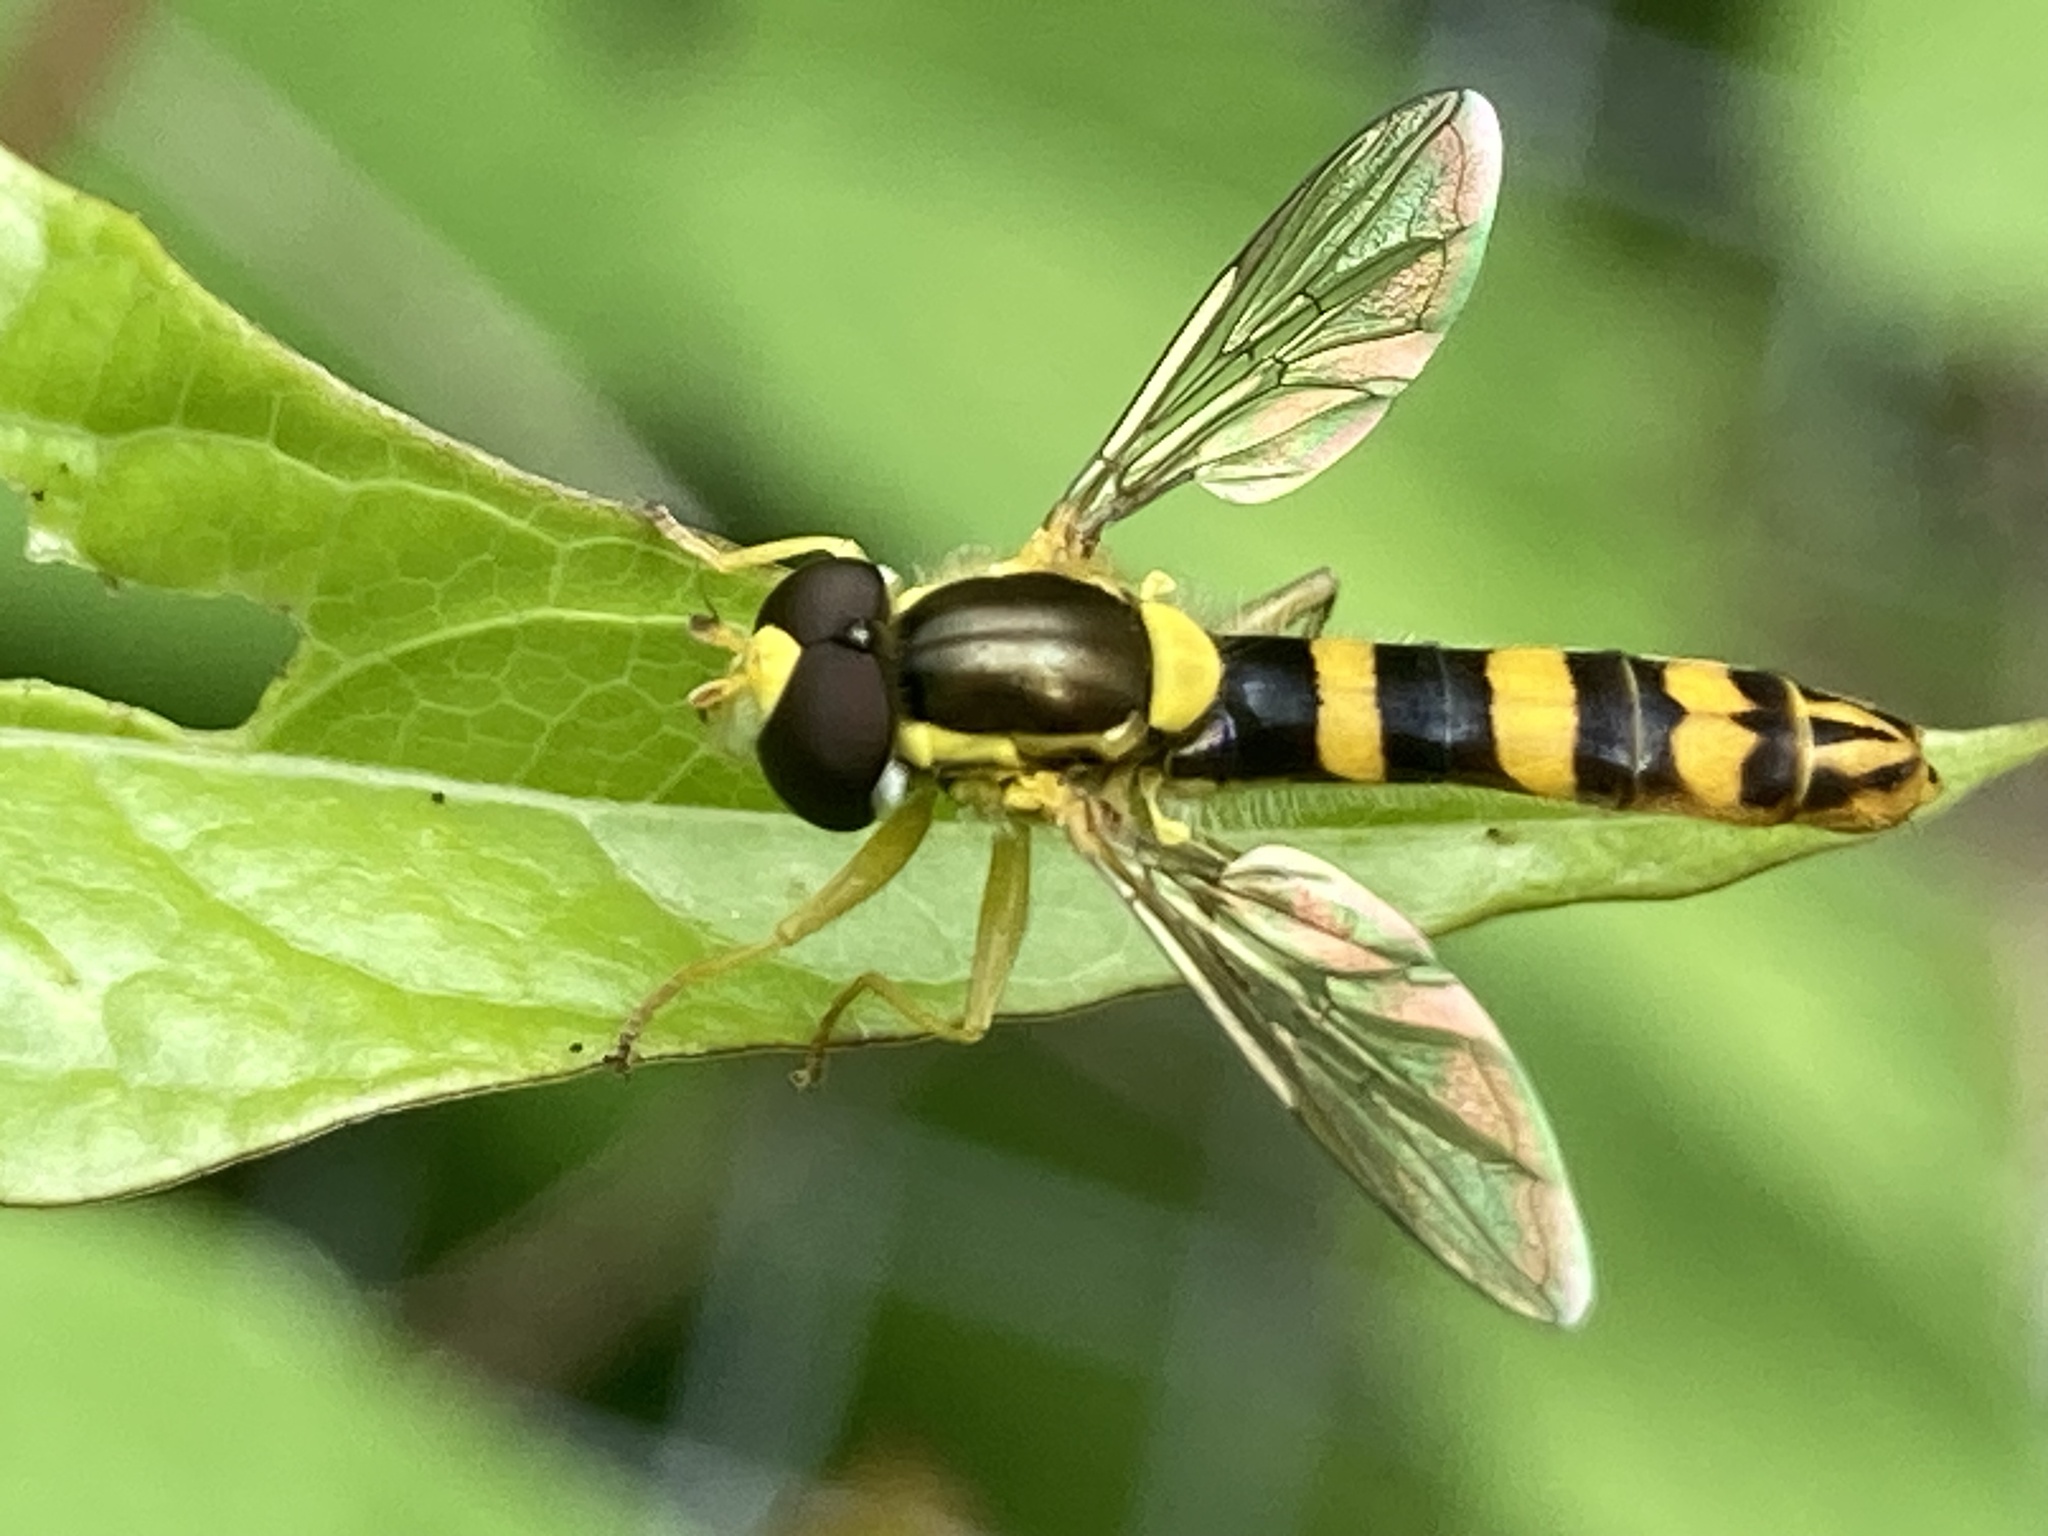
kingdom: Animalia
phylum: Arthropoda
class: Insecta
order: Diptera
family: Syrphidae
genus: Sphaerophoria
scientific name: Sphaerophoria scripta
